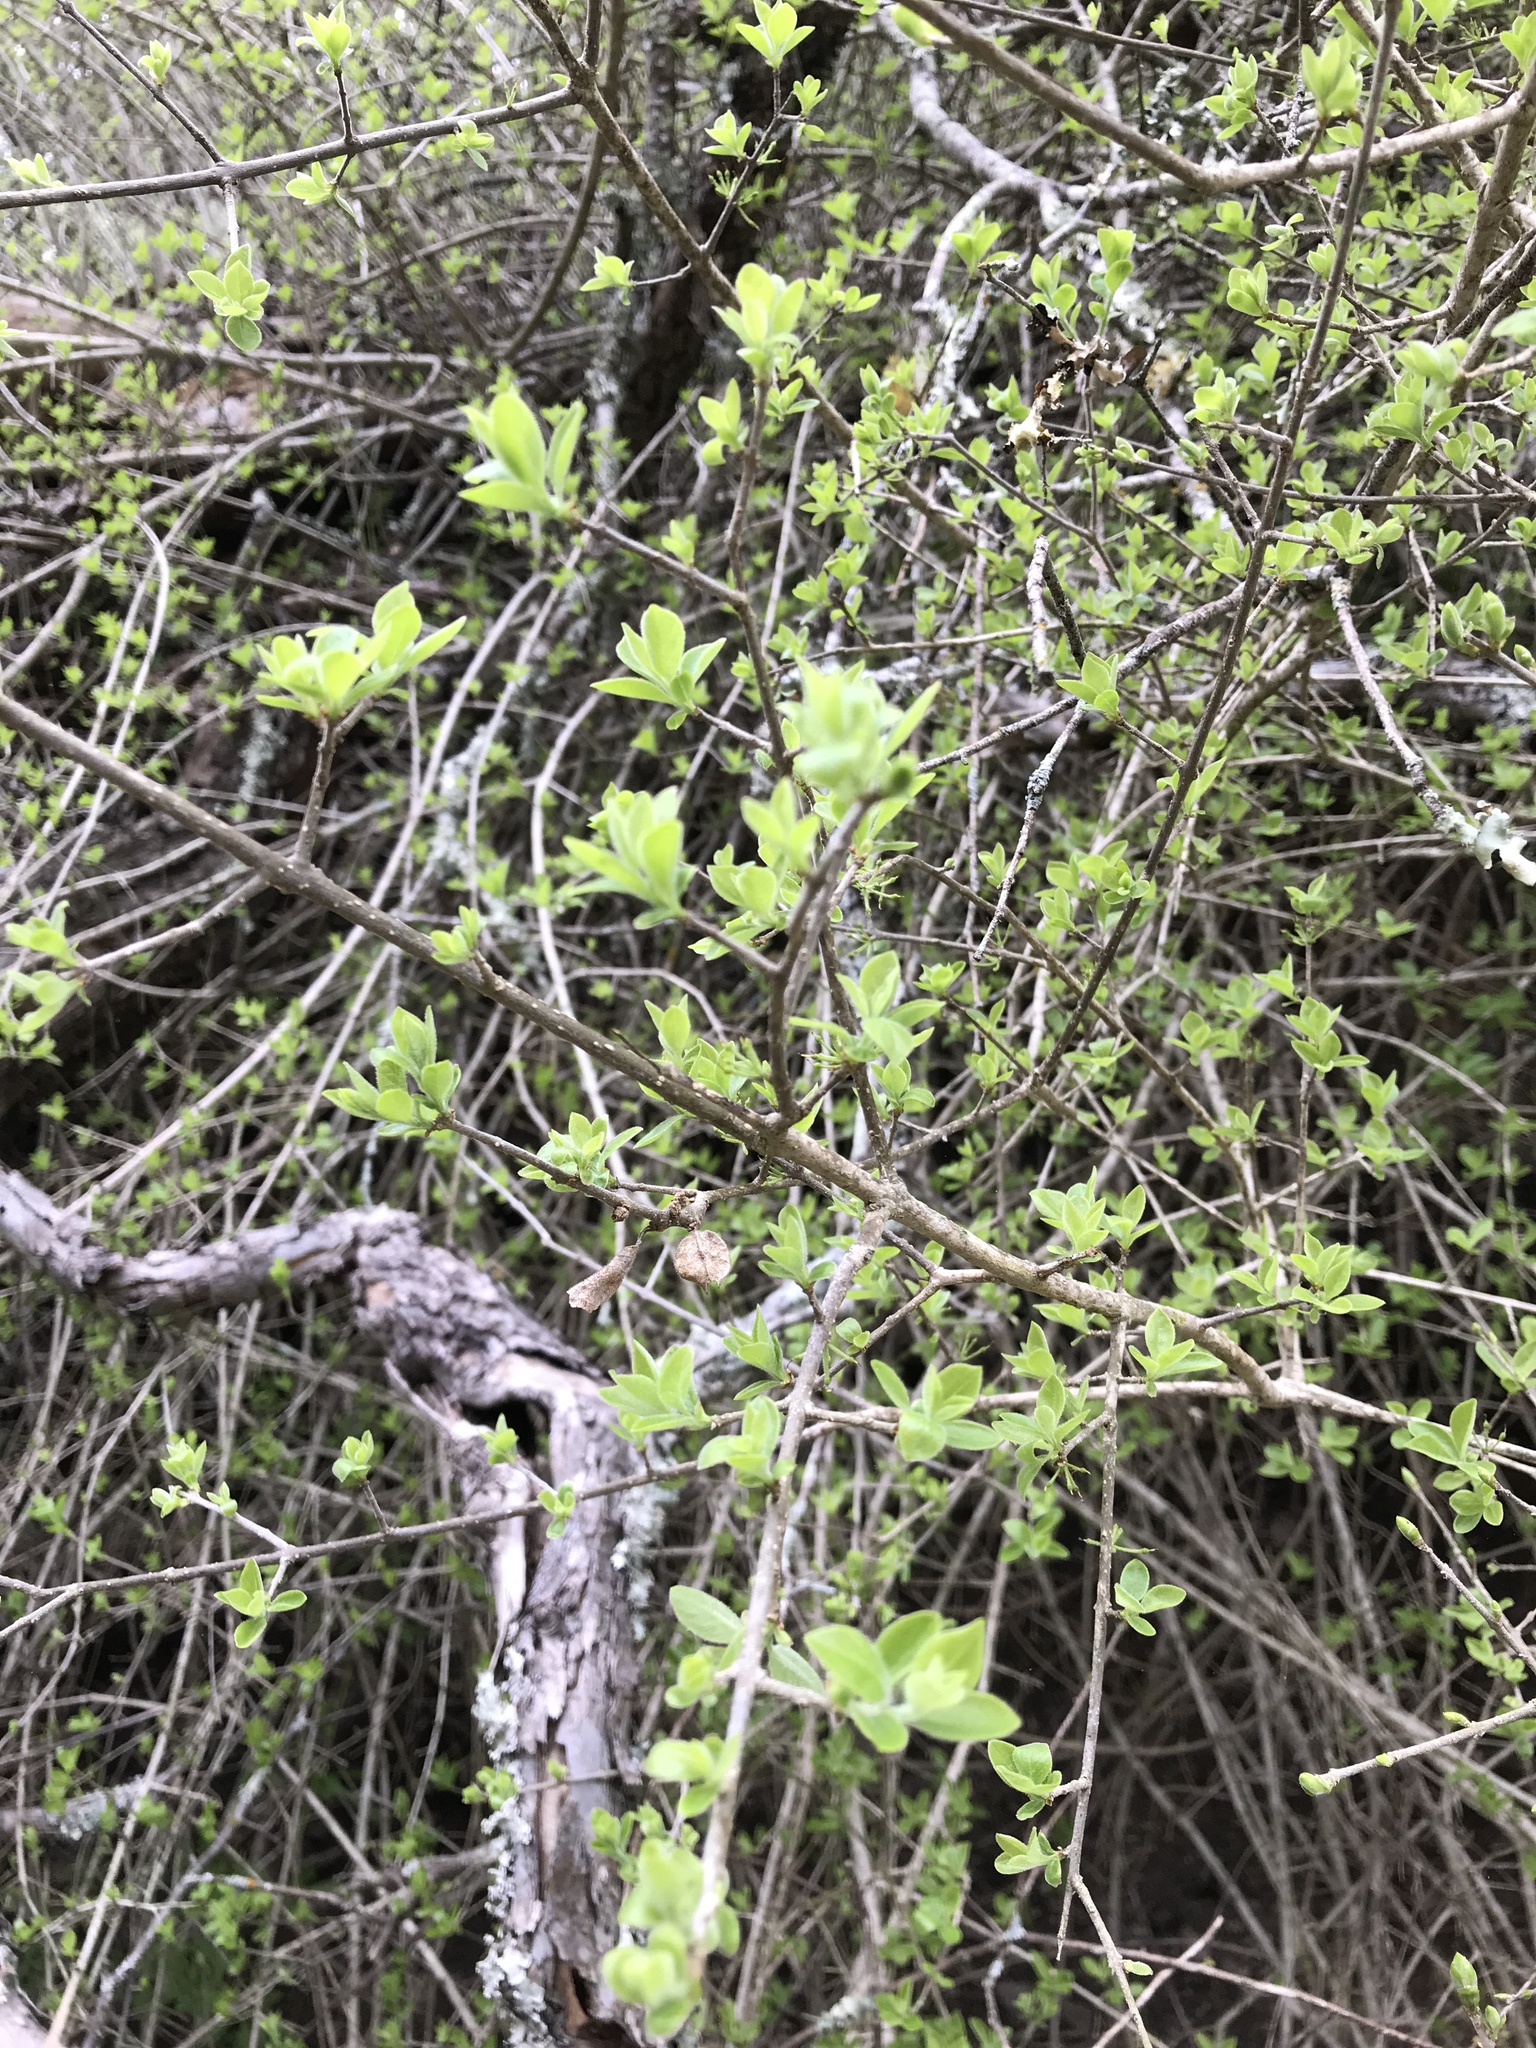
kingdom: Plantae
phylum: Tracheophyta
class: Magnoliopsida
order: Lamiales
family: Oleaceae
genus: Forestiera
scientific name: Forestiera pubescens
